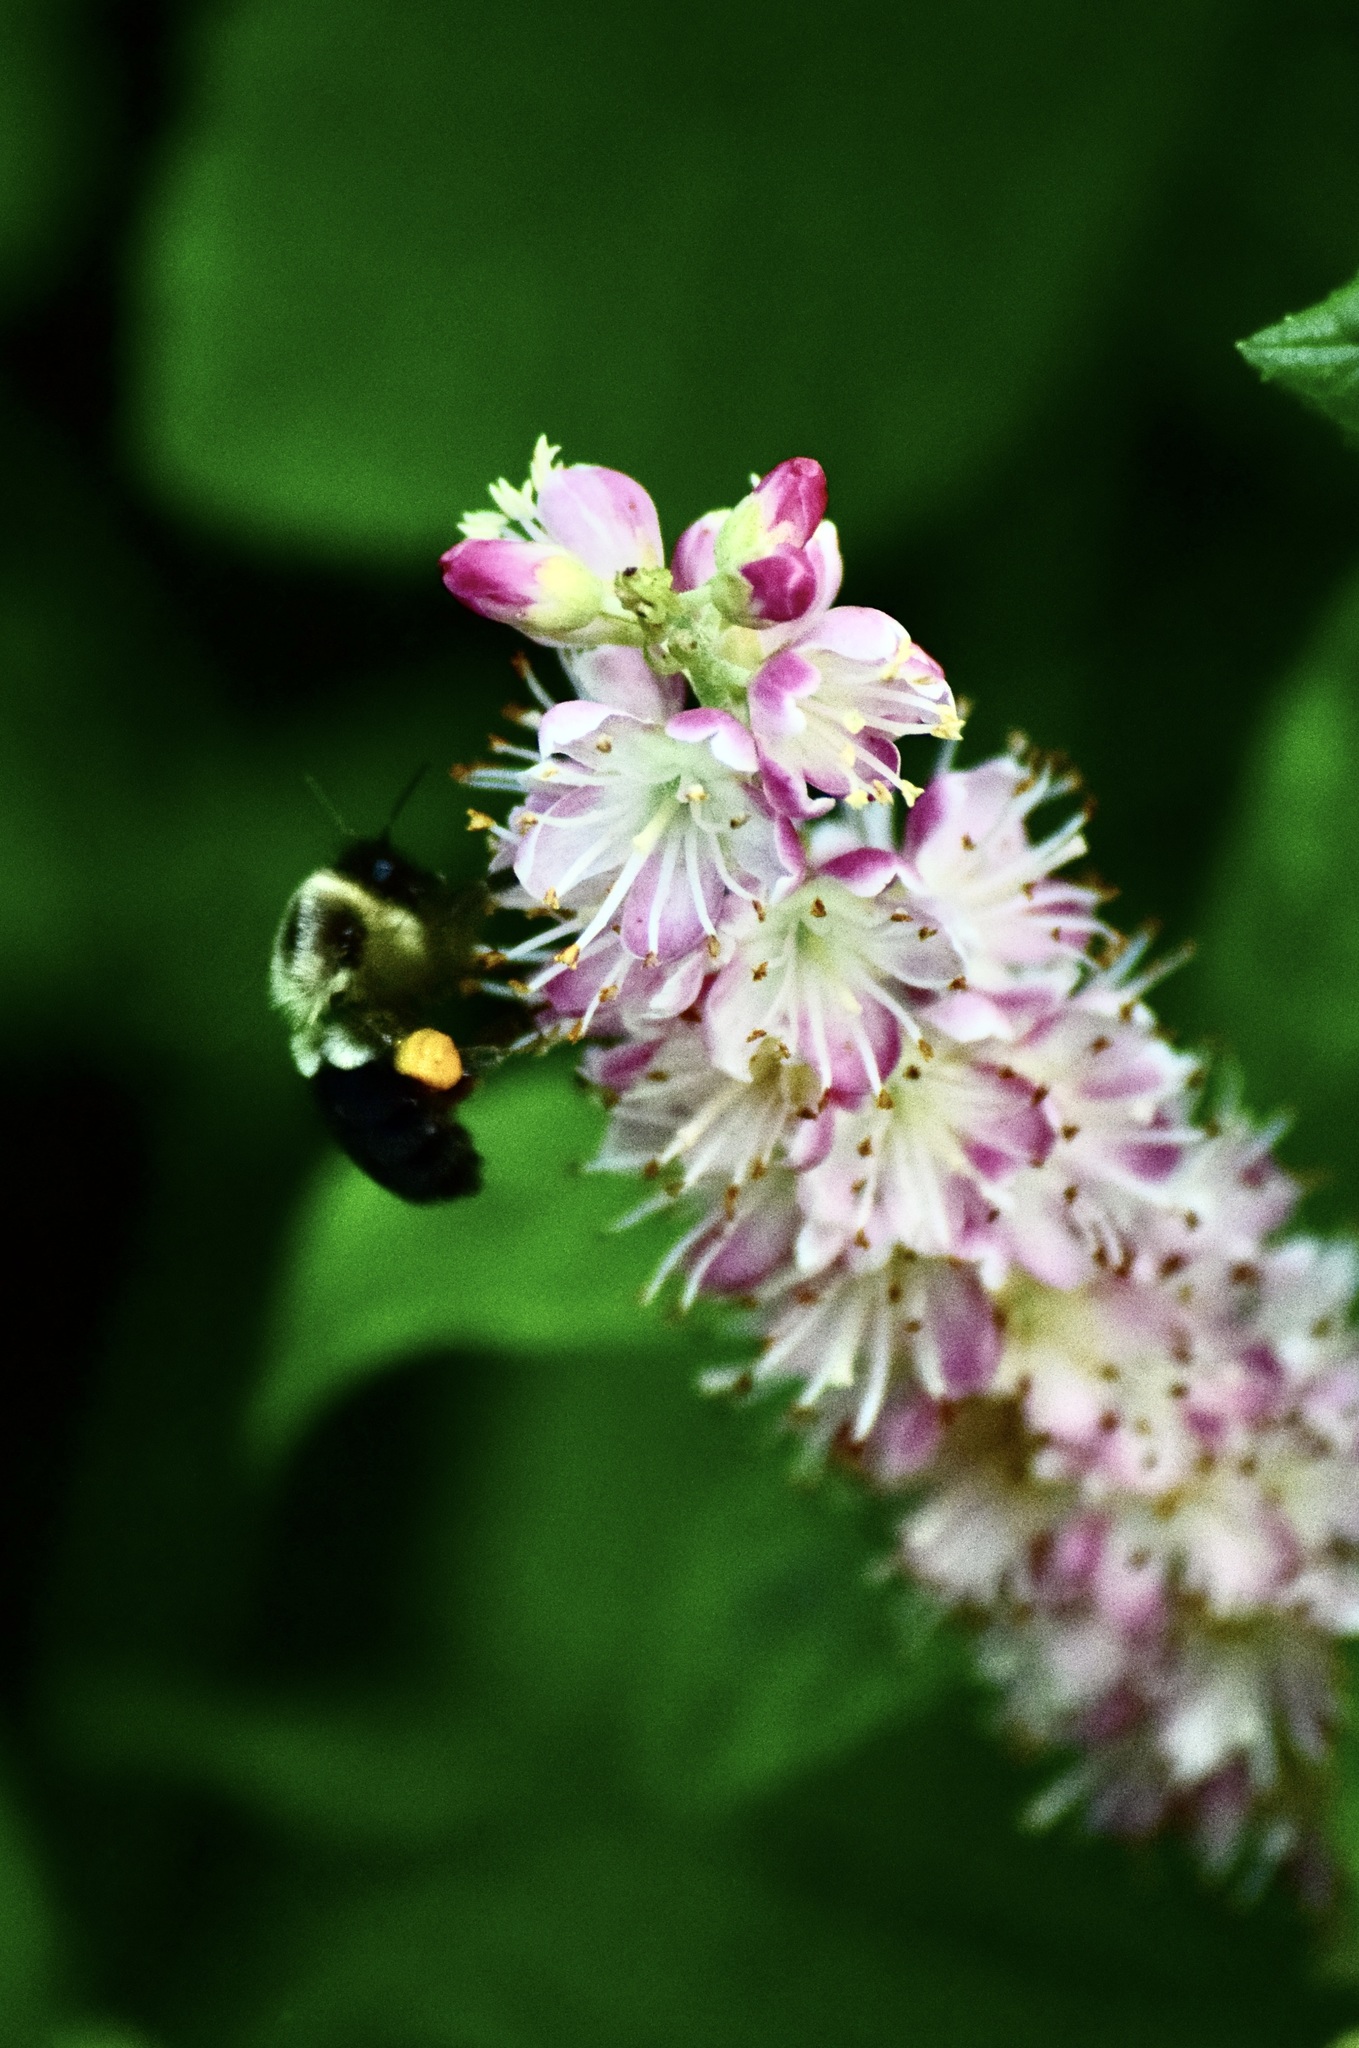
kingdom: Animalia
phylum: Arthropoda
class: Insecta
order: Hymenoptera
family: Apidae
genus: Bombus
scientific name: Bombus impatiens
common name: Common eastern bumble bee
